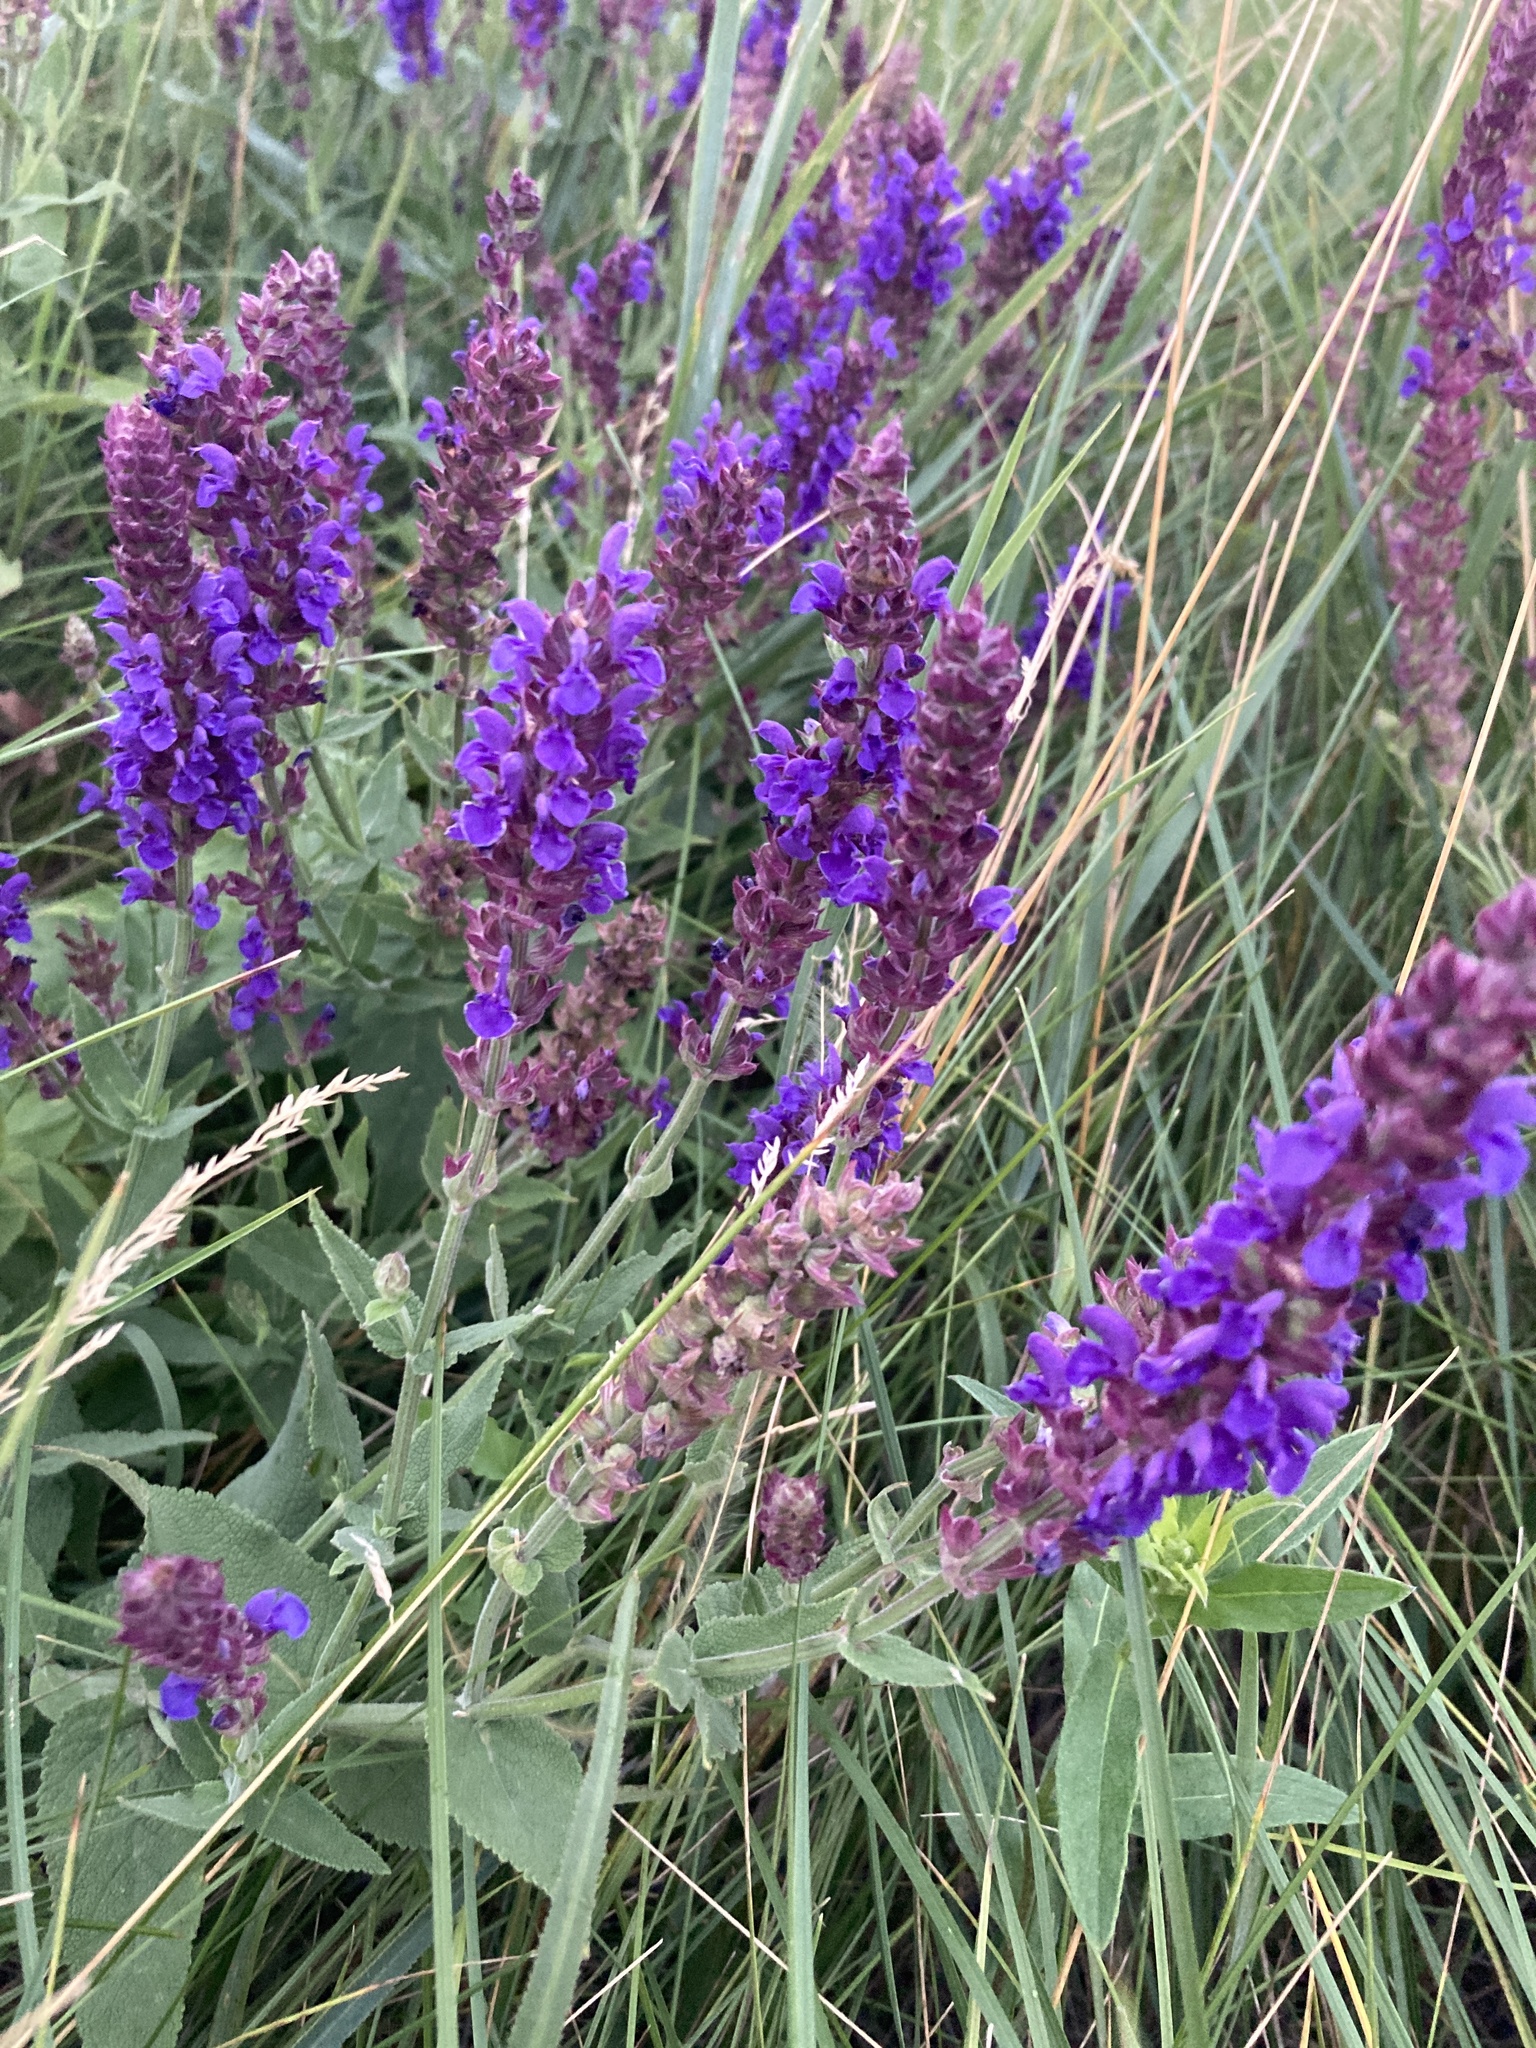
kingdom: Plantae
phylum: Tracheophyta
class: Magnoliopsida
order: Lamiales
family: Lamiaceae
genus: Salvia
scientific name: Salvia nemorosa
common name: Balkan clary
